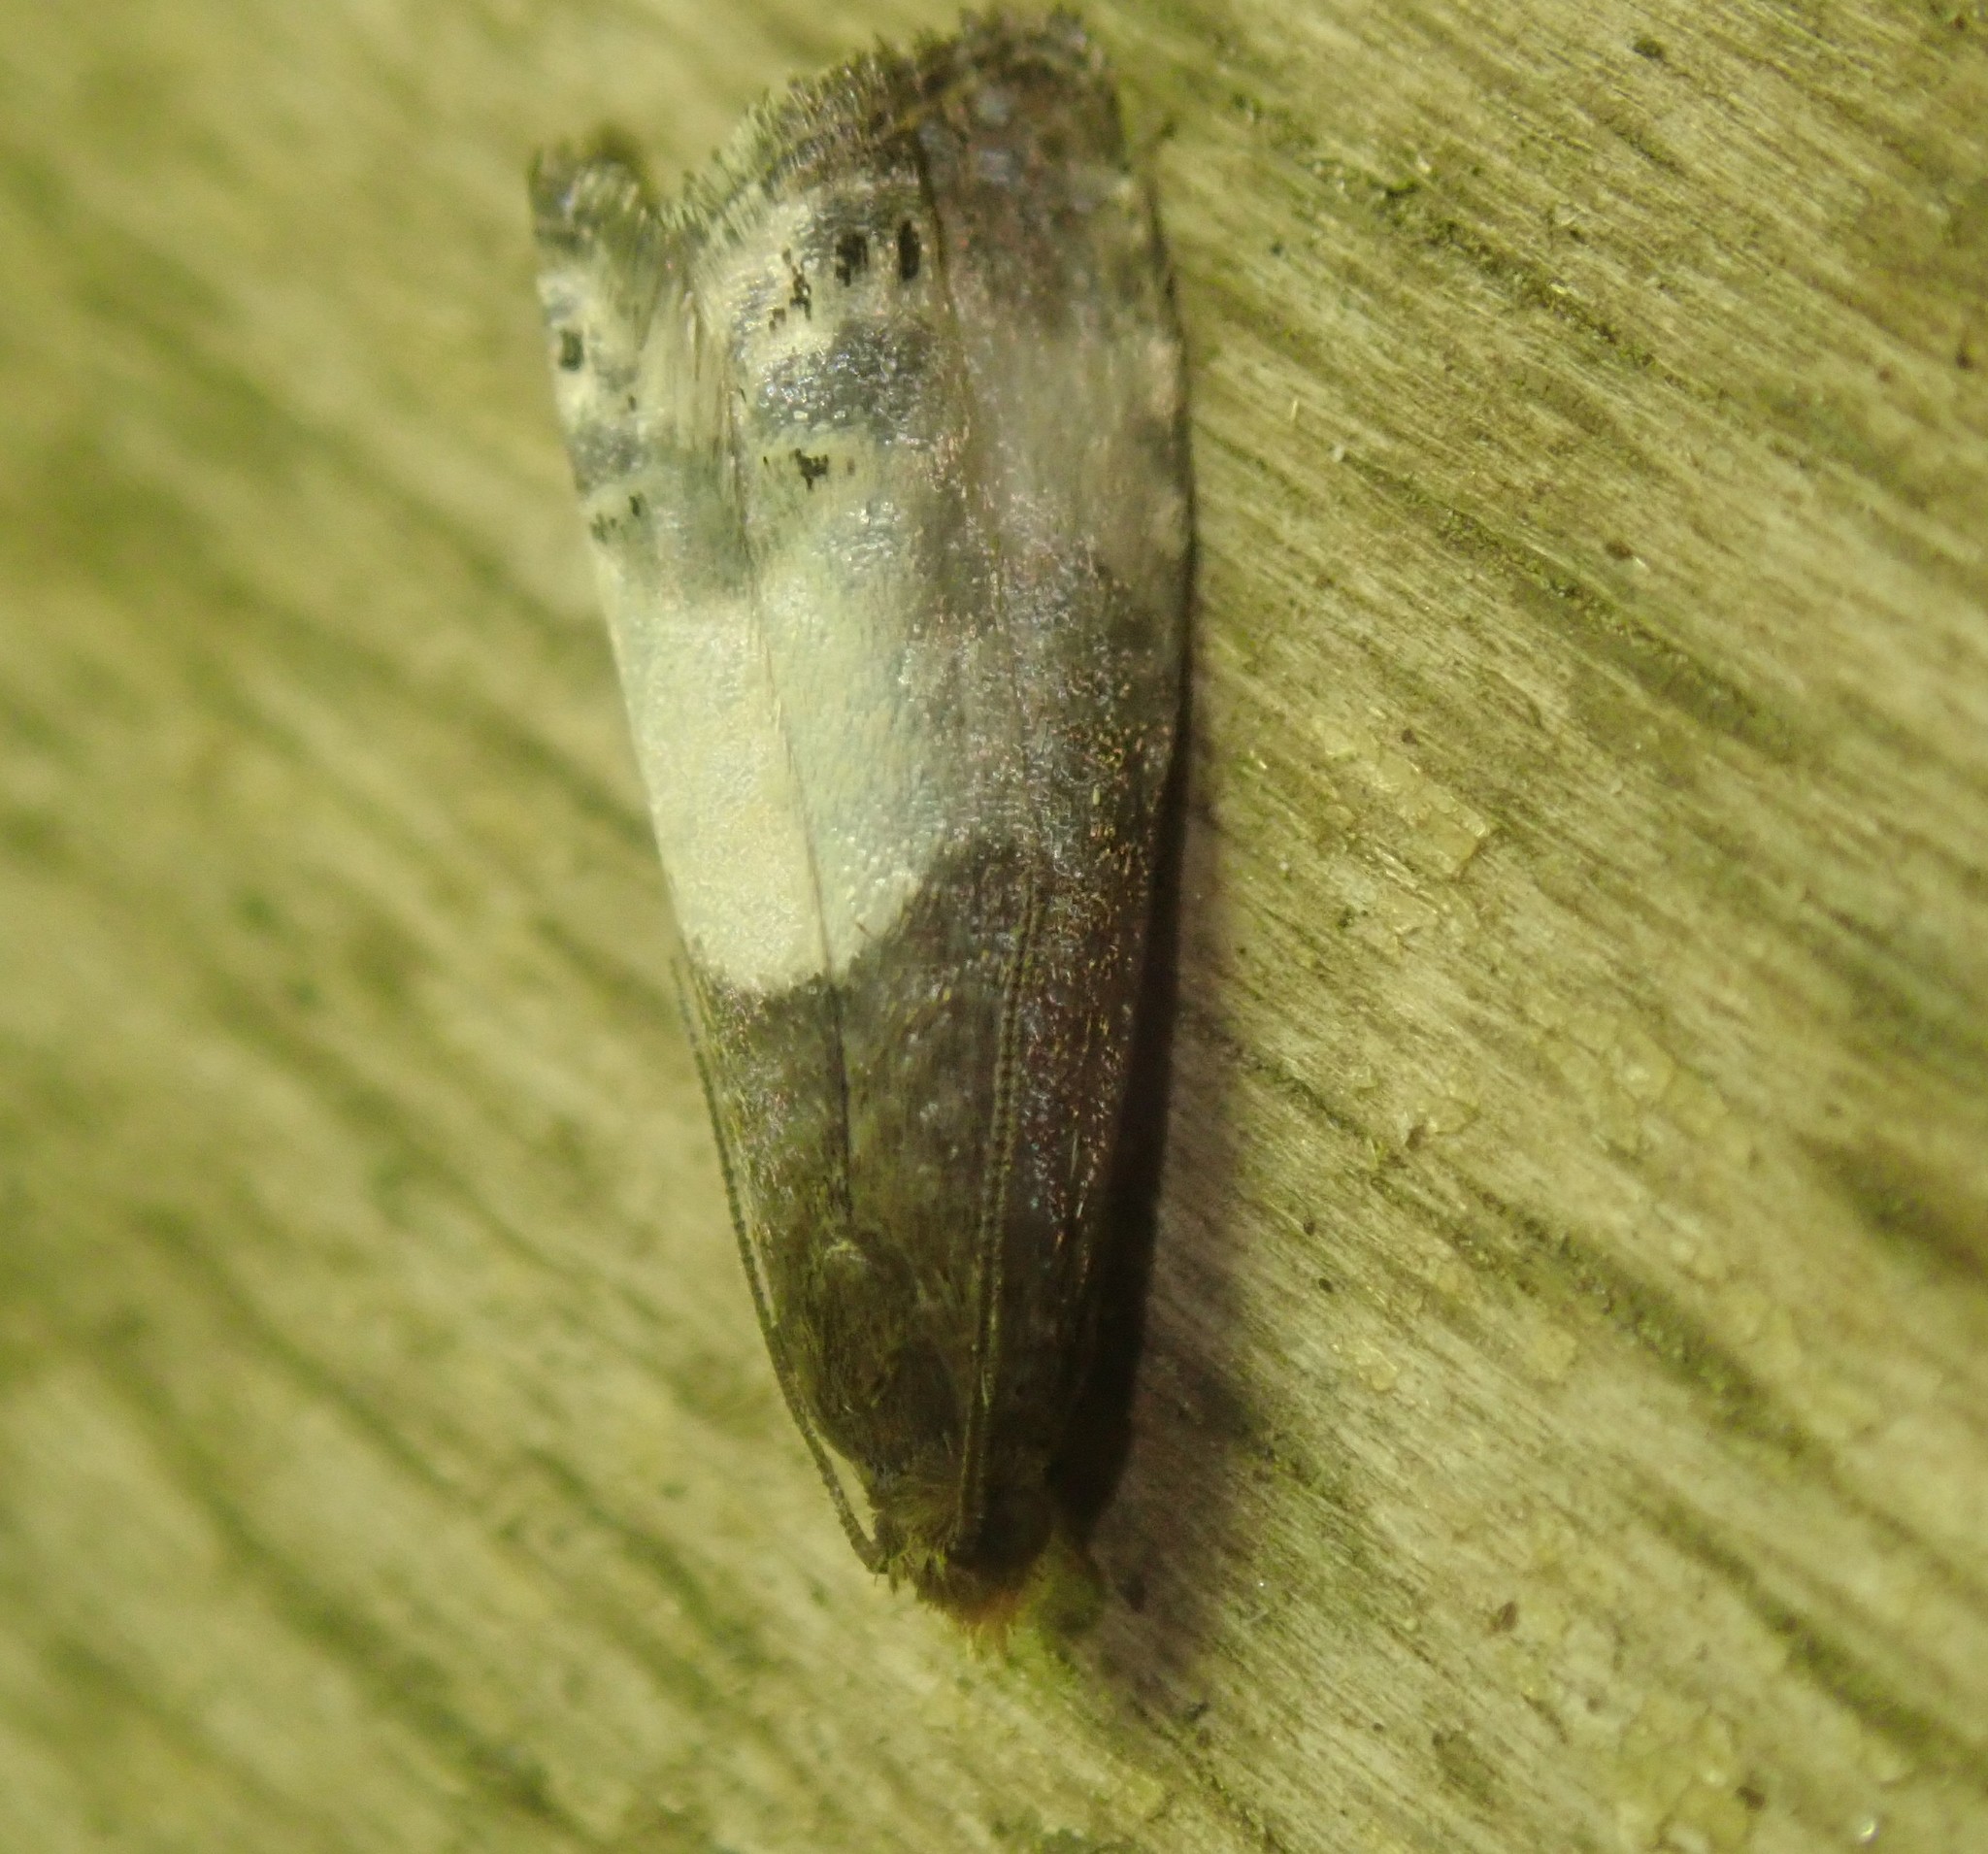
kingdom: Animalia
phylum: Arthropoda
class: Insecta
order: Lepidoptera
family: Tortricidae
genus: Notocelia
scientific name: Notocelia cynosbatella
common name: Yellow-faced bell moth
